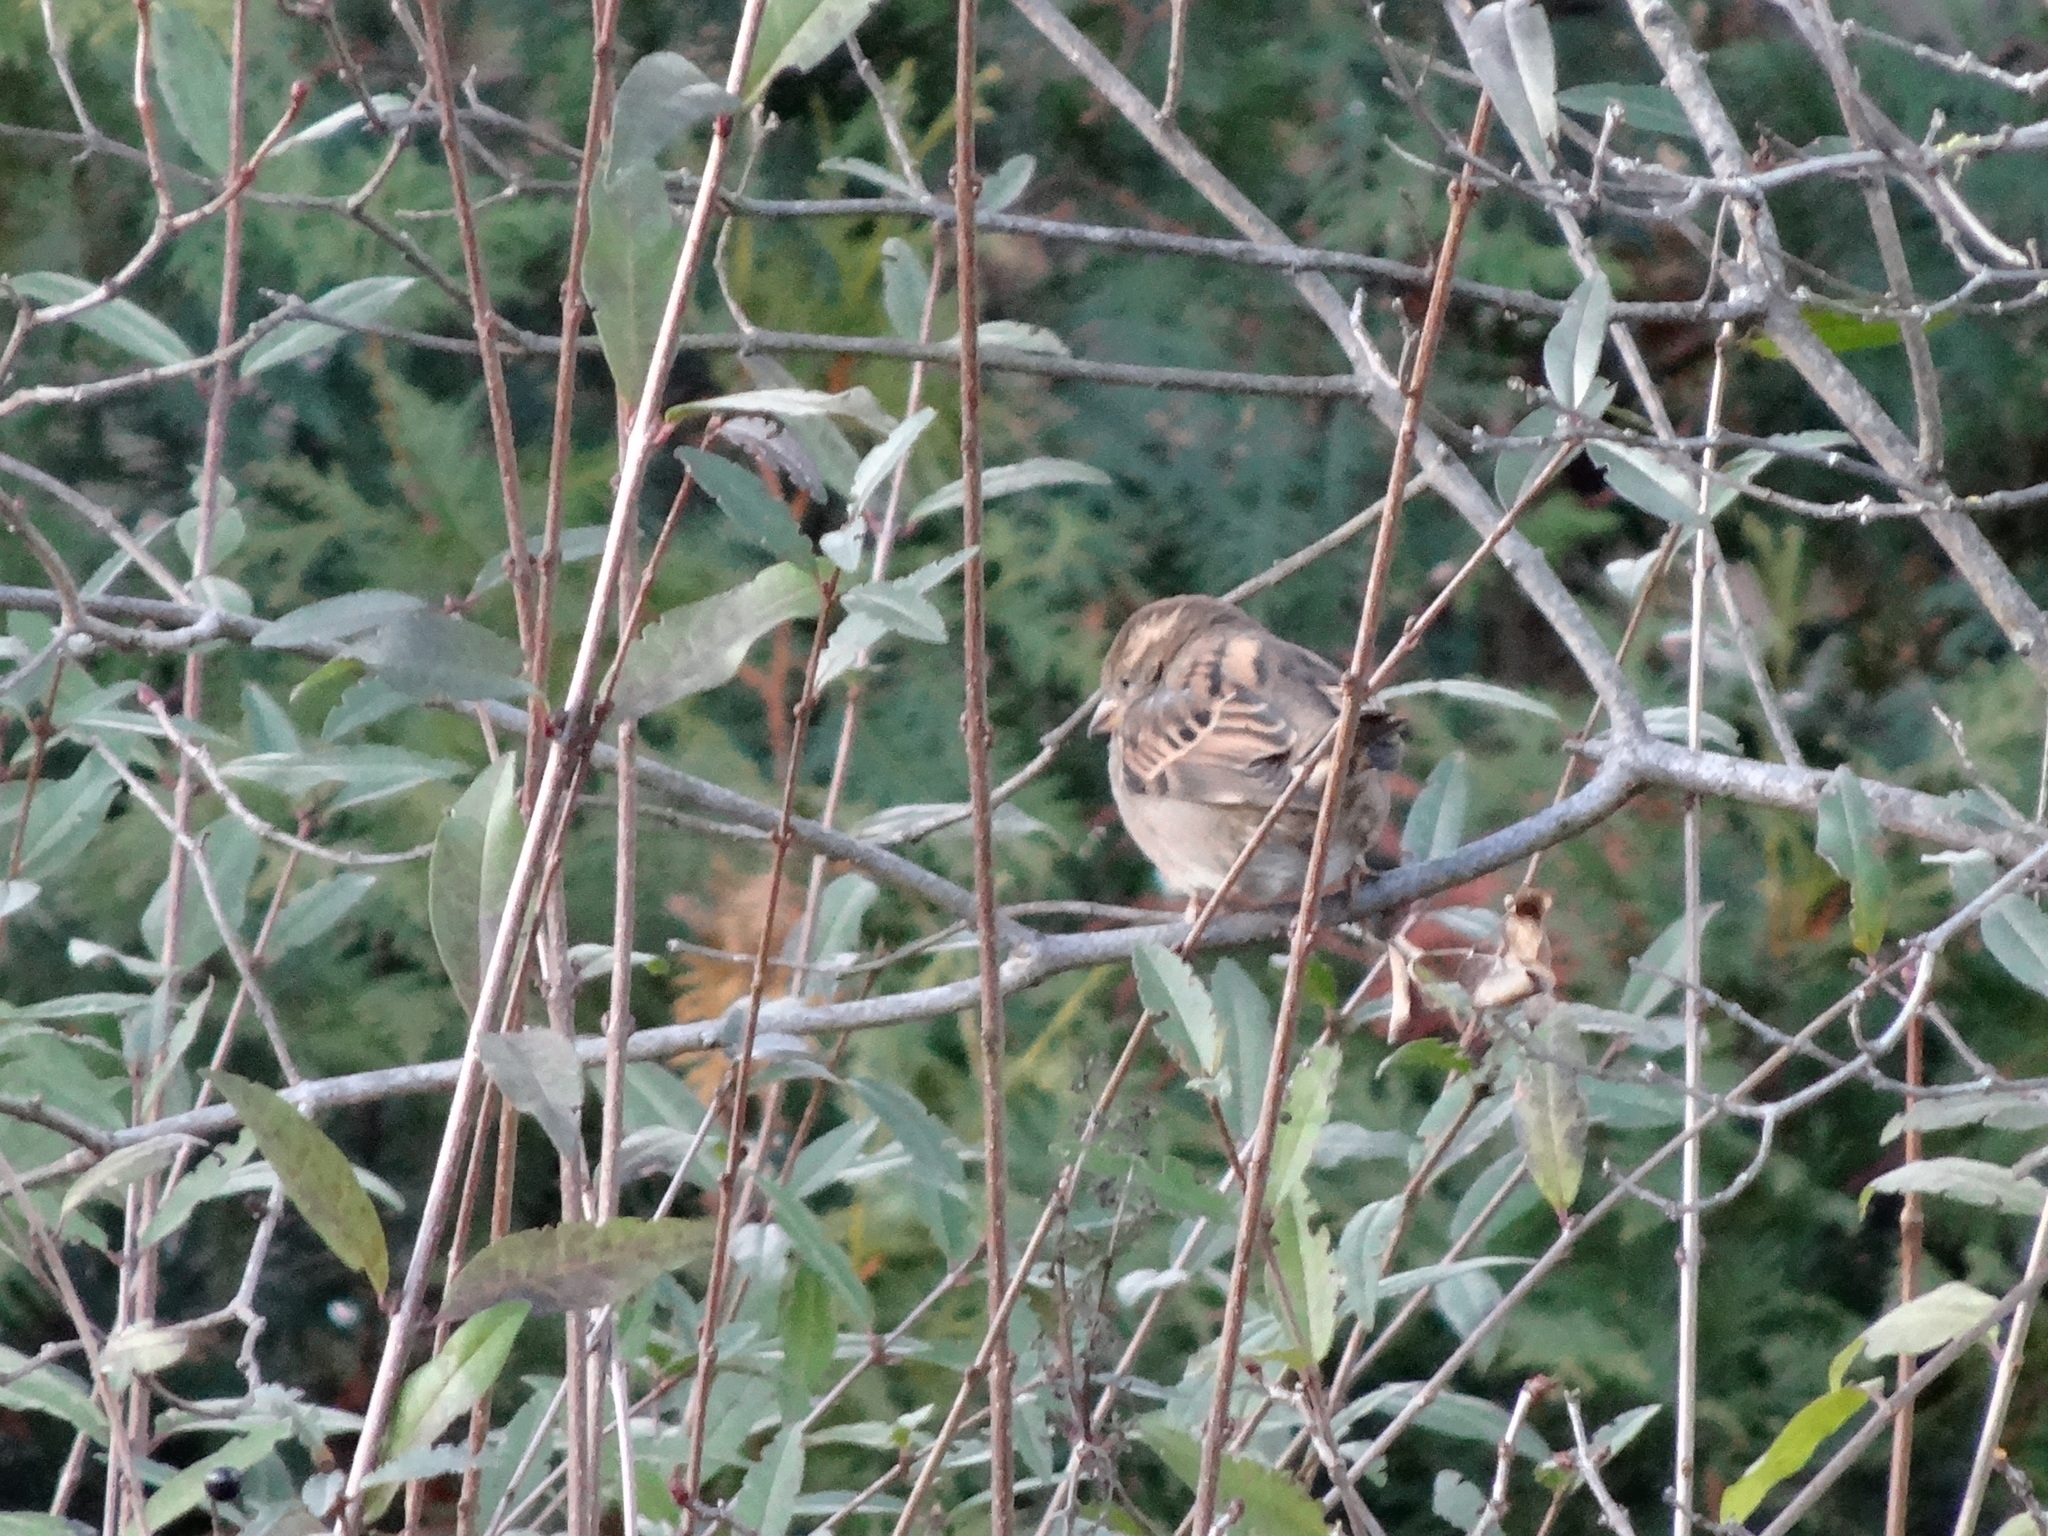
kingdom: Animalia
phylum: Chordata
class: Aves
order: Passeriformes
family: Passeridae
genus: Passer
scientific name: Passer domesticus
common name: House sparrow
